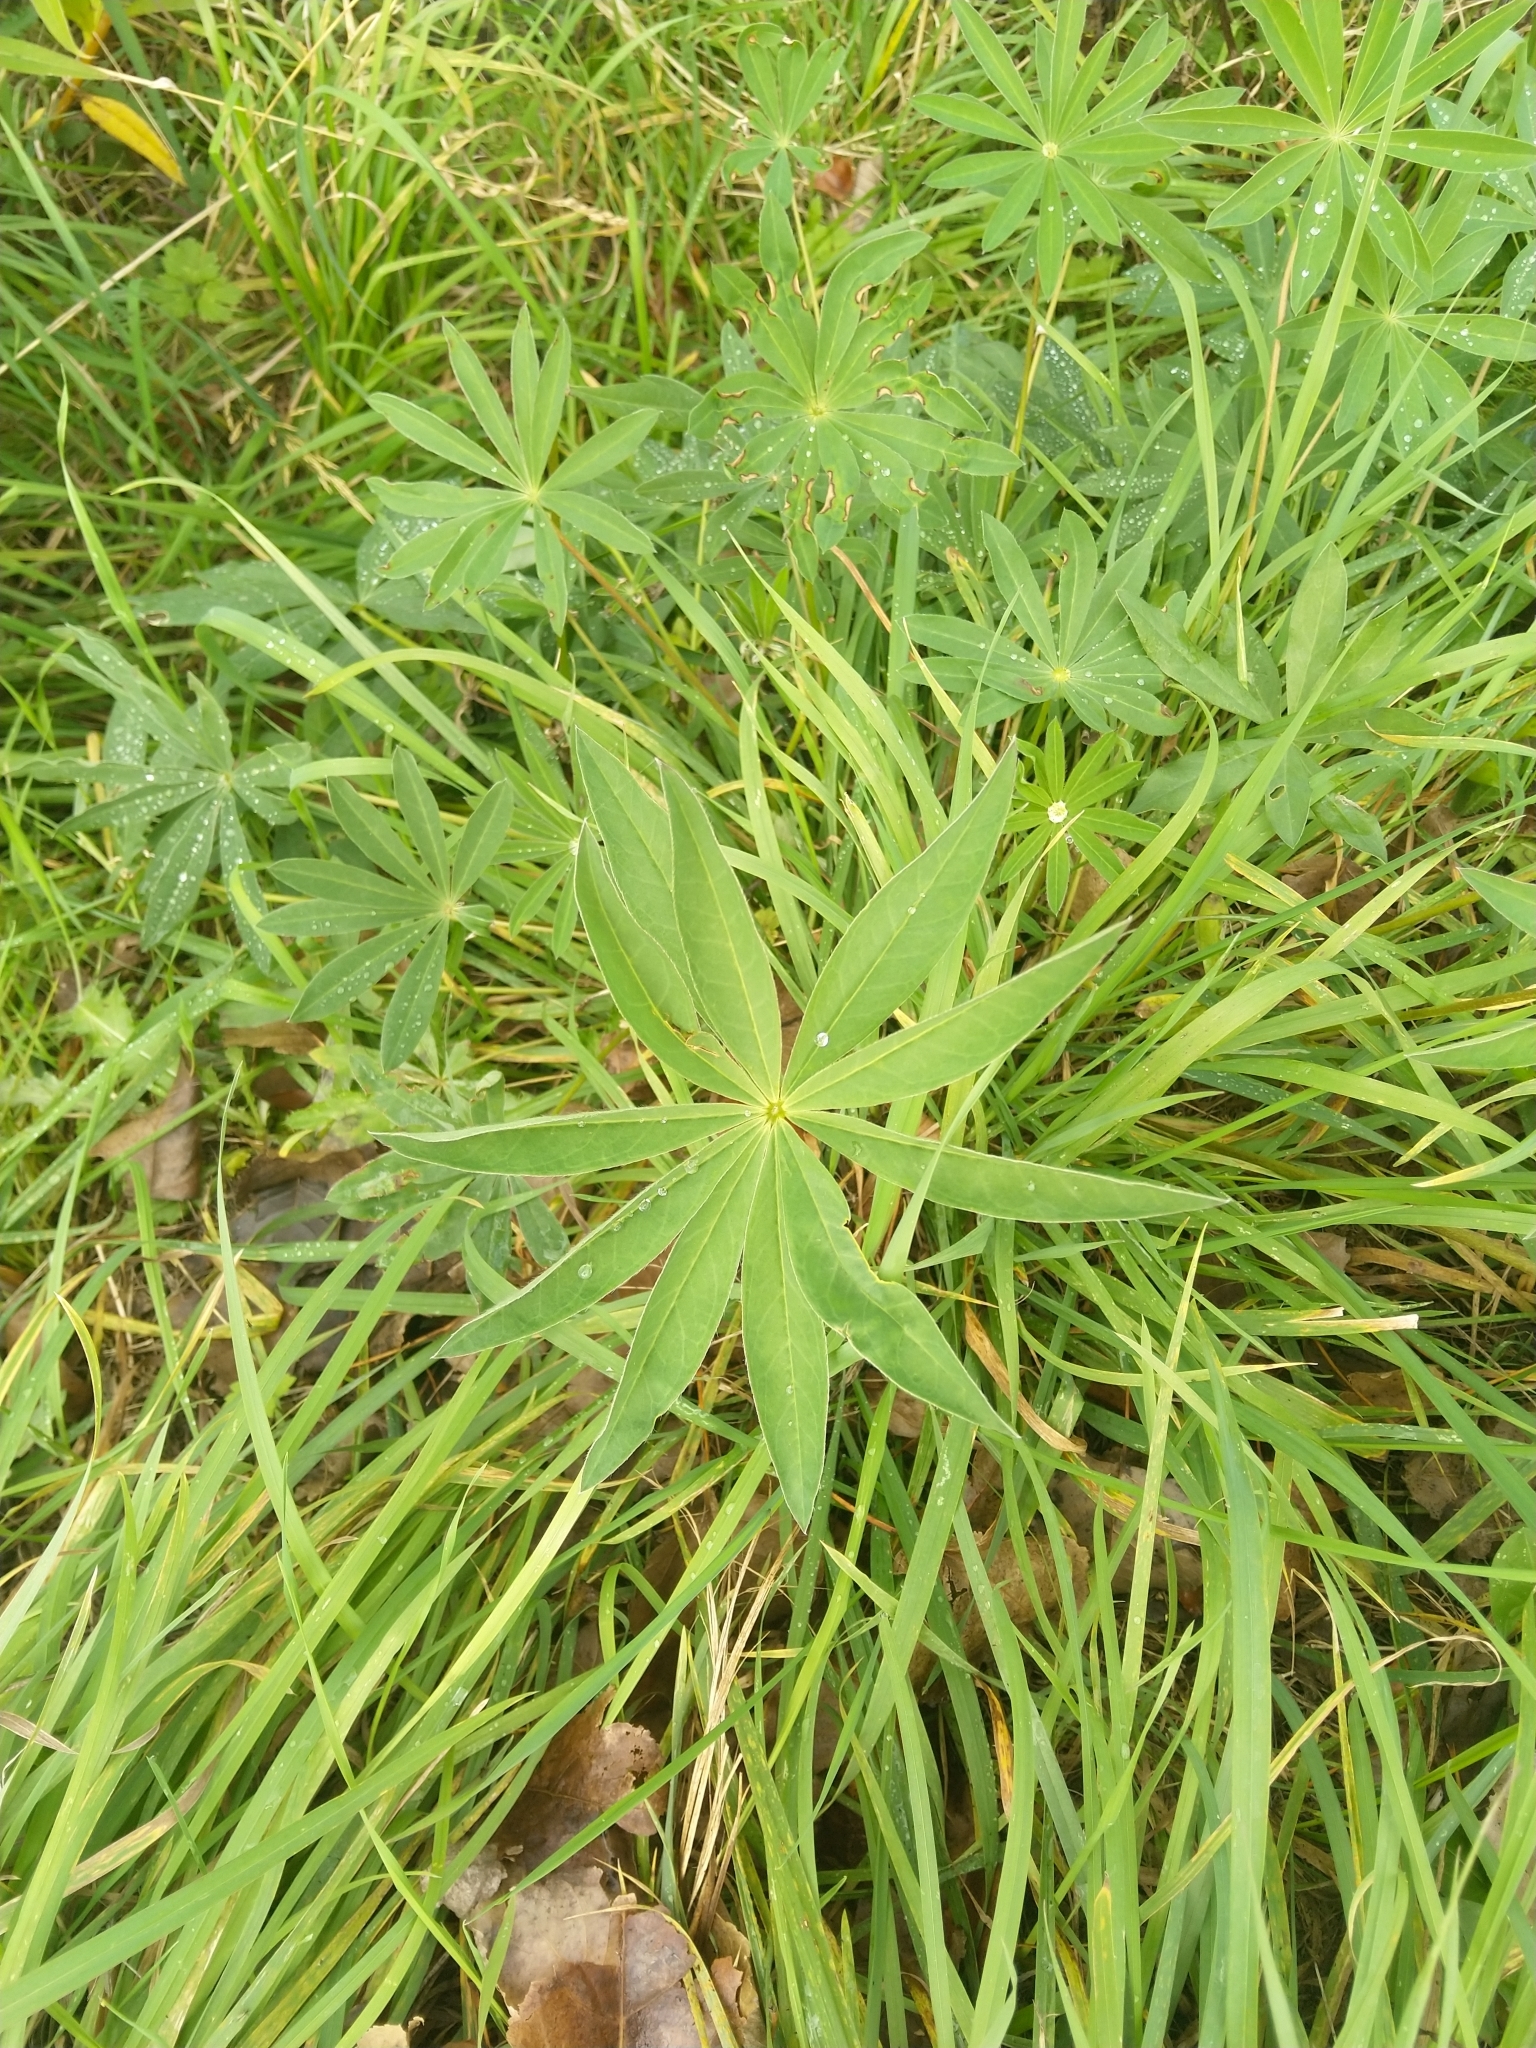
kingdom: Plantae
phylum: Tracheophyta
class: Magnoliopsida
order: Fabales
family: Fabaceae
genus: Lupinus
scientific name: Lupinus polyphyllus
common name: Garden lupin
